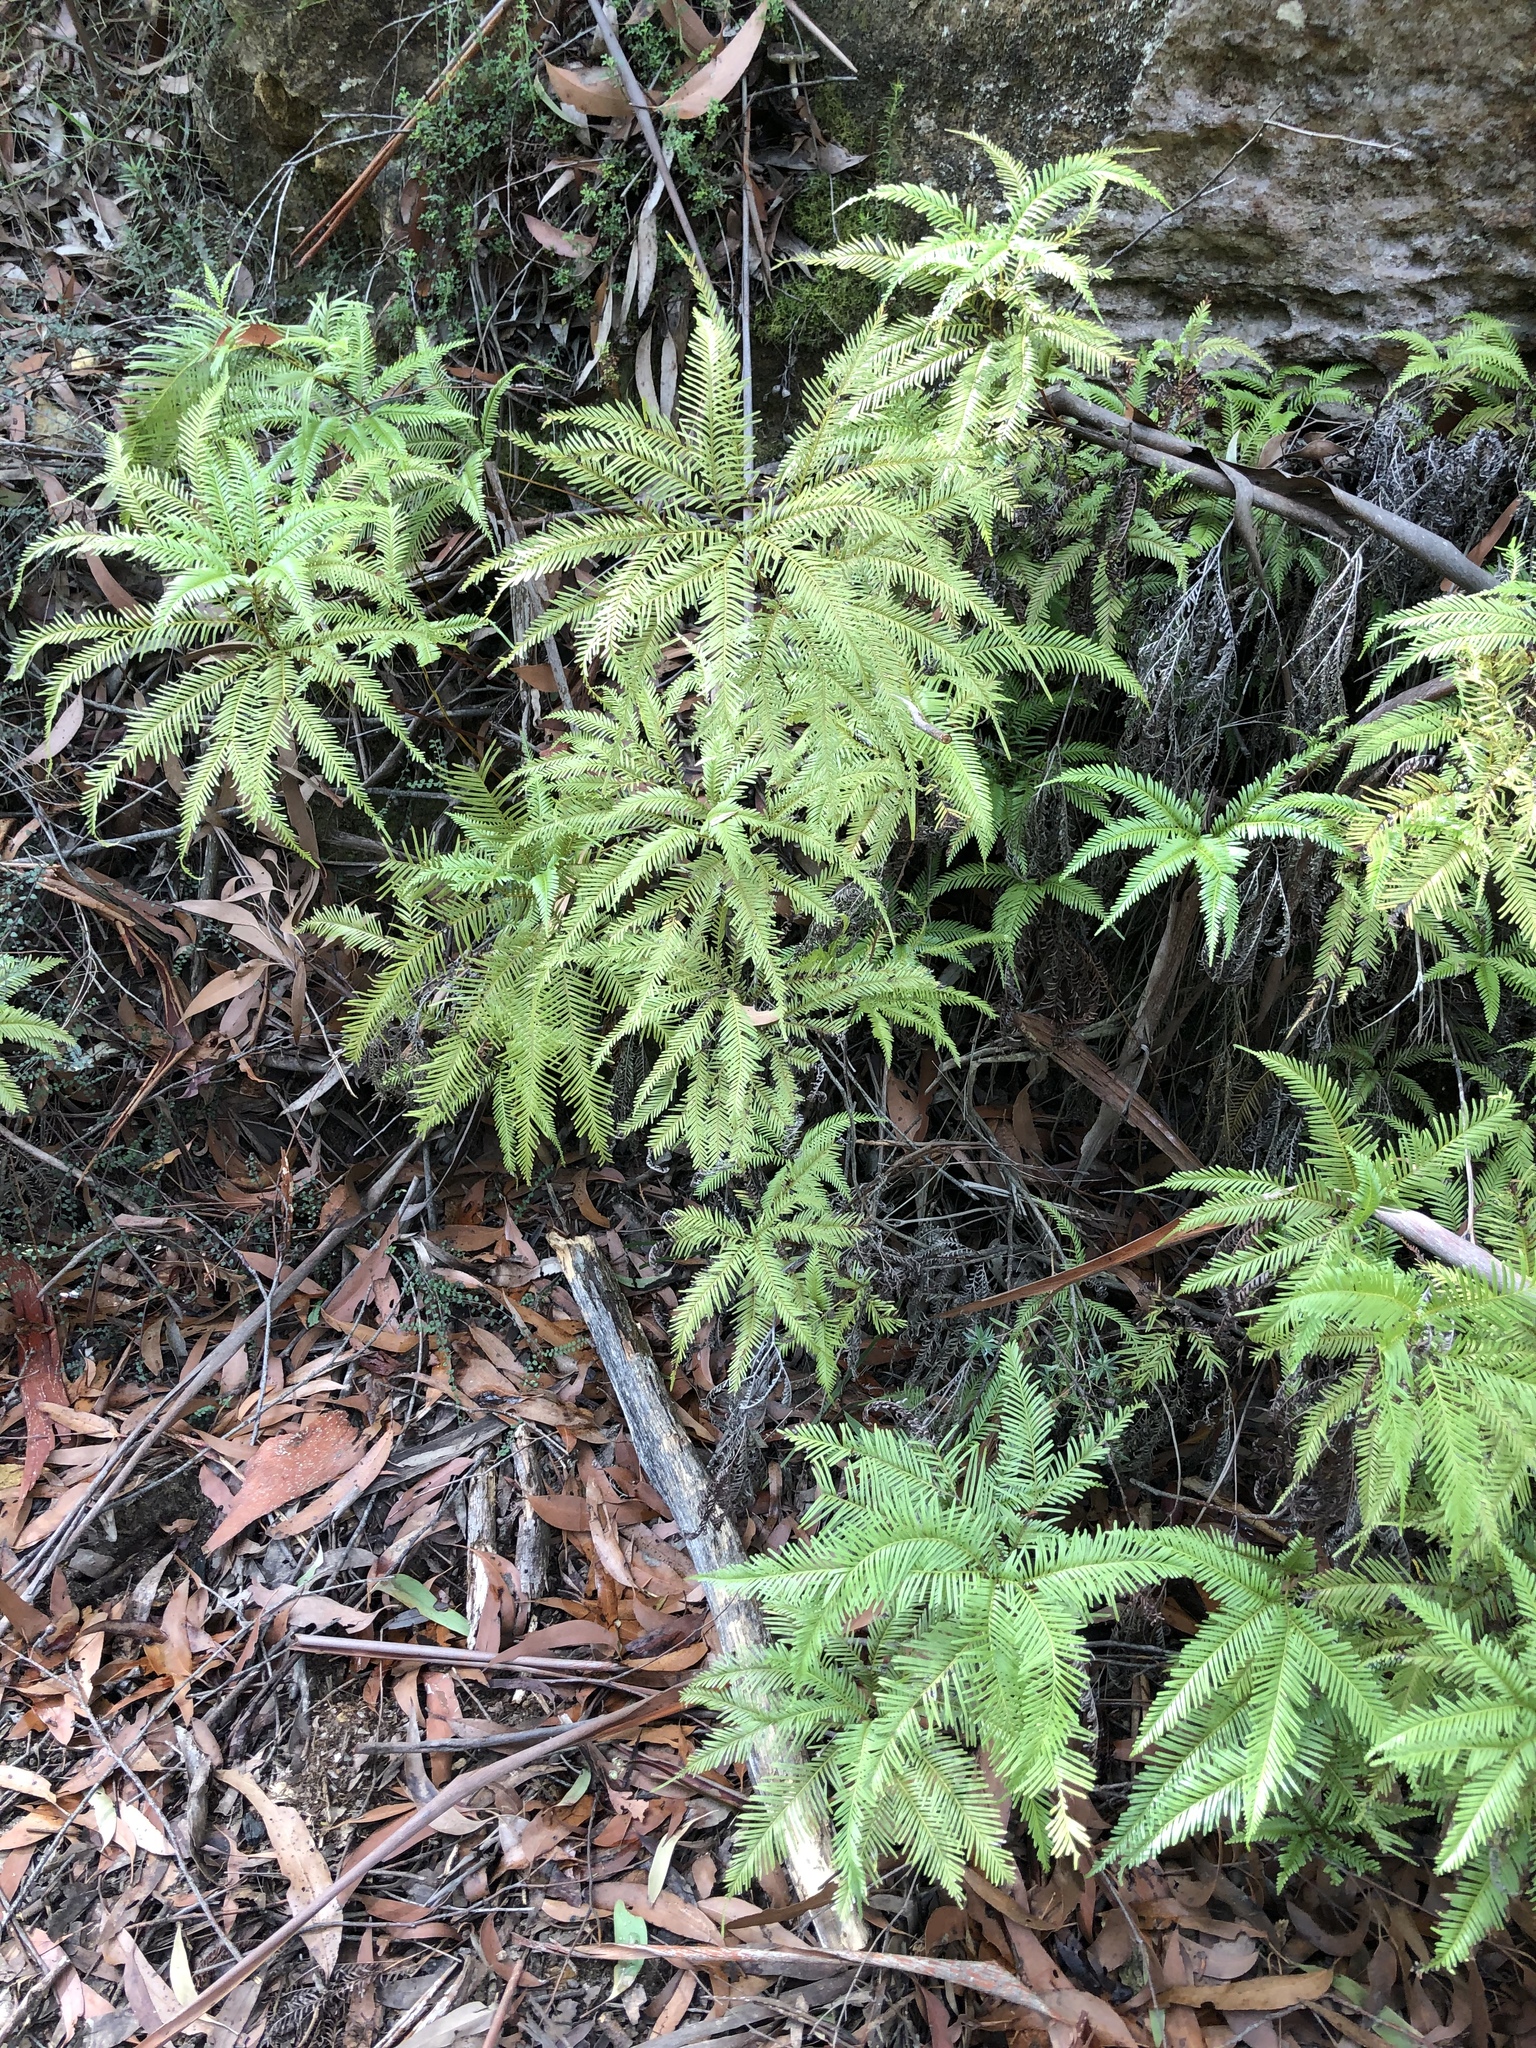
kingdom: Plantae
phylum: Tracheophyta
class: Polypodiopsida
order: Gleicheniales
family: Gleicheniaceae
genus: Sticherus
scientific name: Sticherus flabellatus
